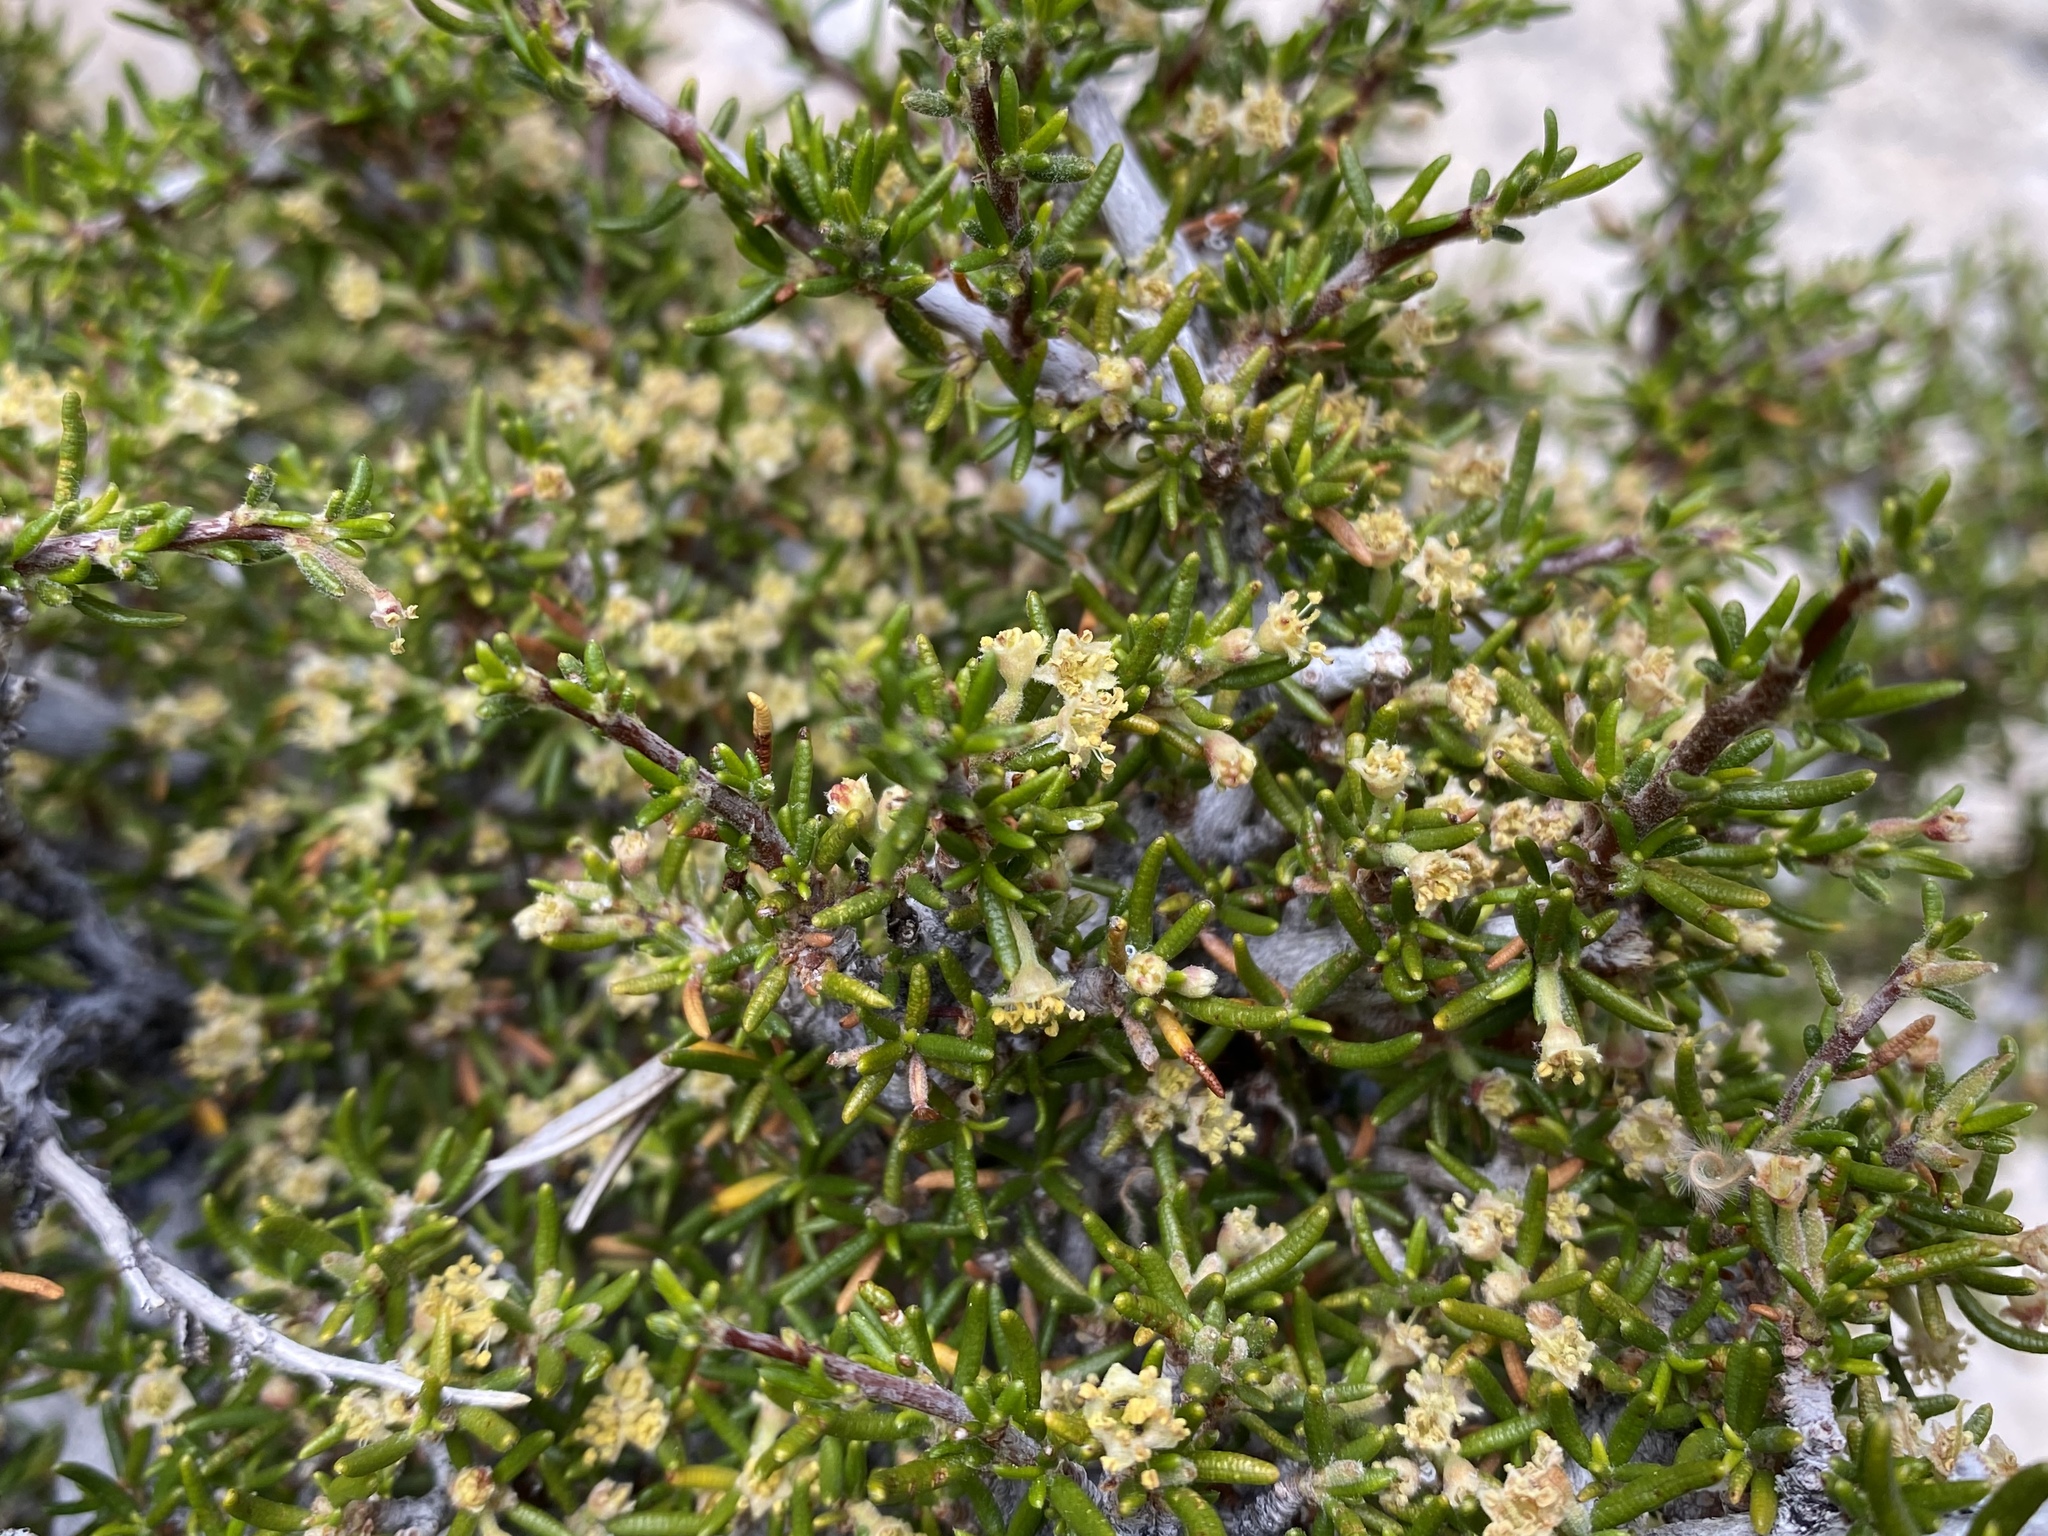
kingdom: Plantae
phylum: Tracheophyta
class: Magnoliopsida
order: Rosales
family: Rosaceae
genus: Cercocarpus
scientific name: Cercocarpus intricatus
